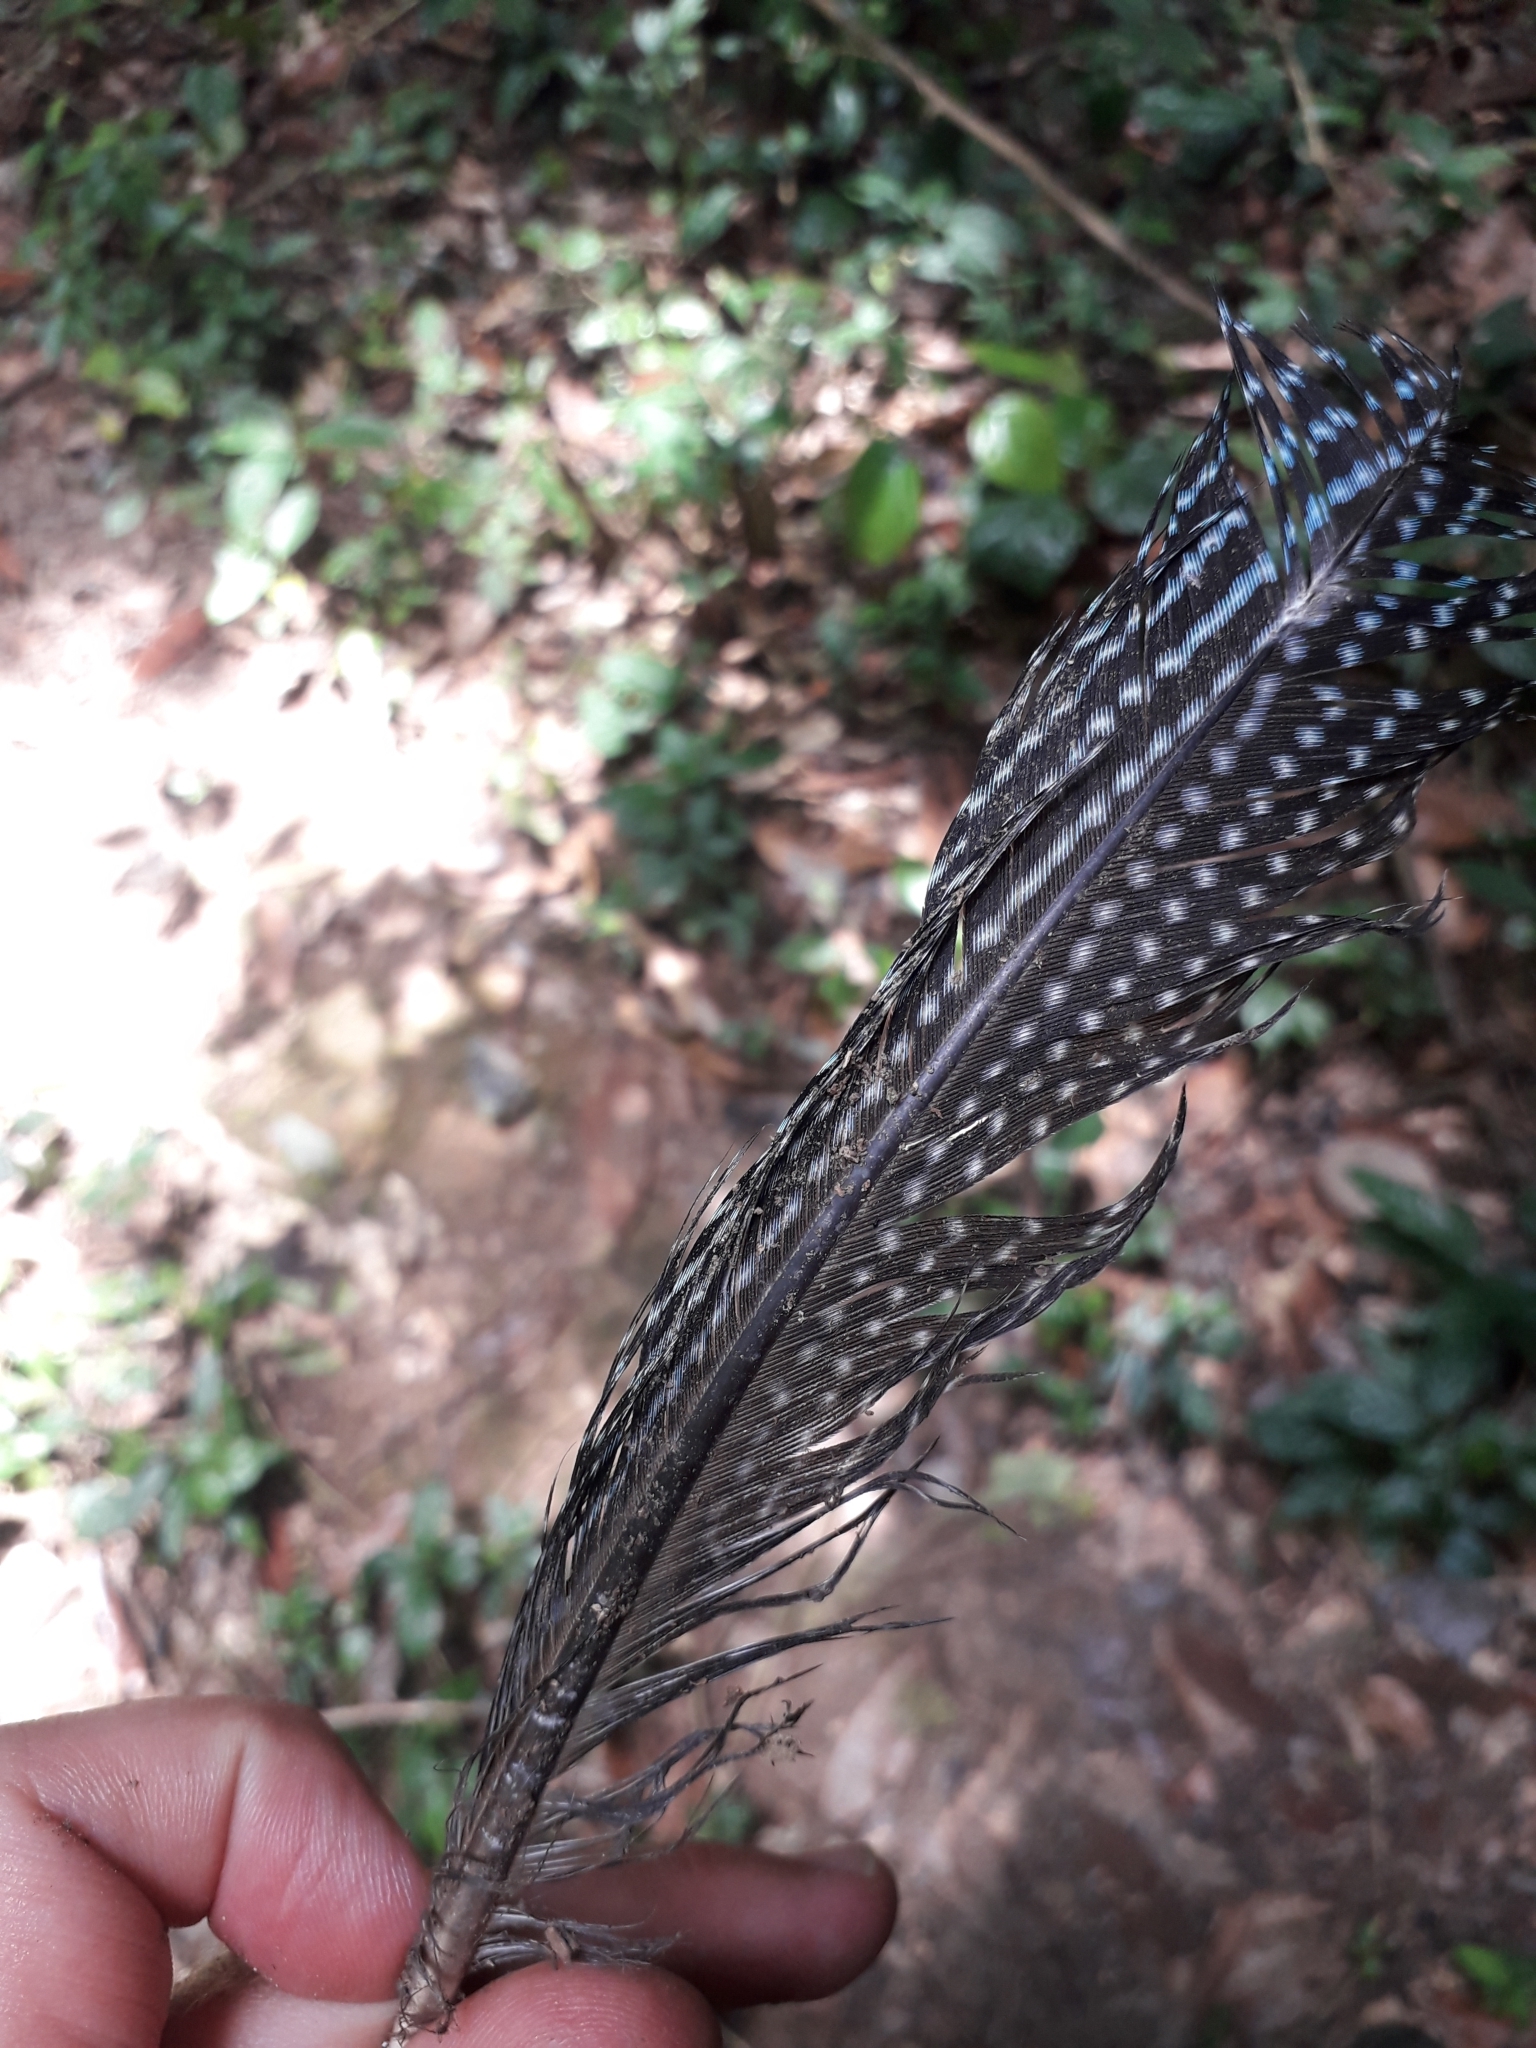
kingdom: Animalia
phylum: Chordata
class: Aves
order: Galliformes
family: Numididae
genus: Guttera
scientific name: Guttera pucherani
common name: Crested guineafowl
